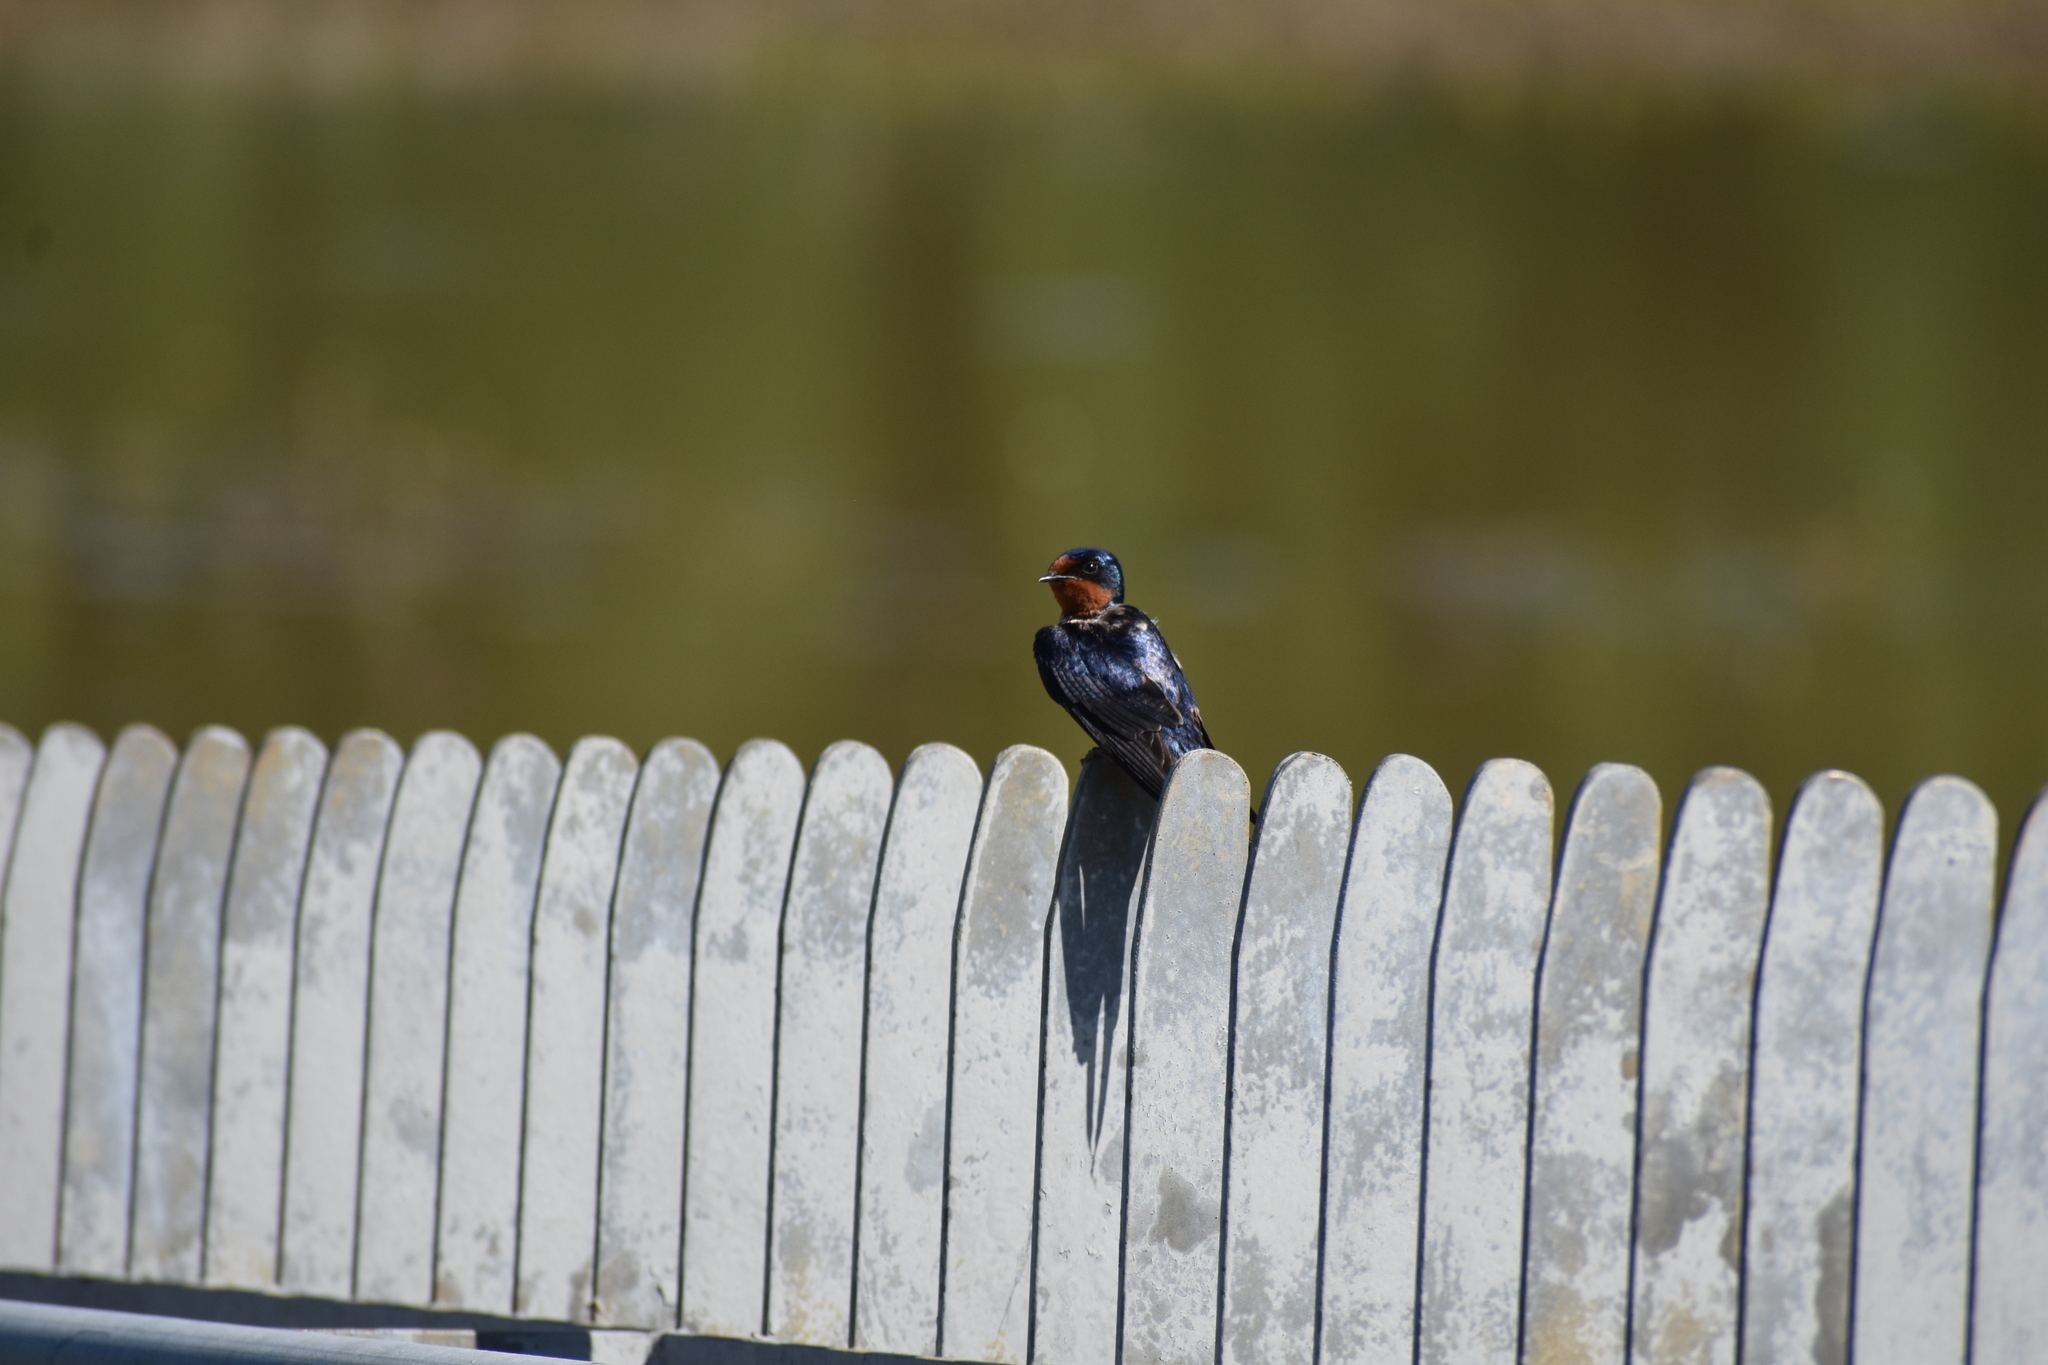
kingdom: Animalia
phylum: Chordata
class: Aves
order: Passeriformes
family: Hirundinidae
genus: Hirundo
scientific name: Hirundo rustica
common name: Barn swallow
